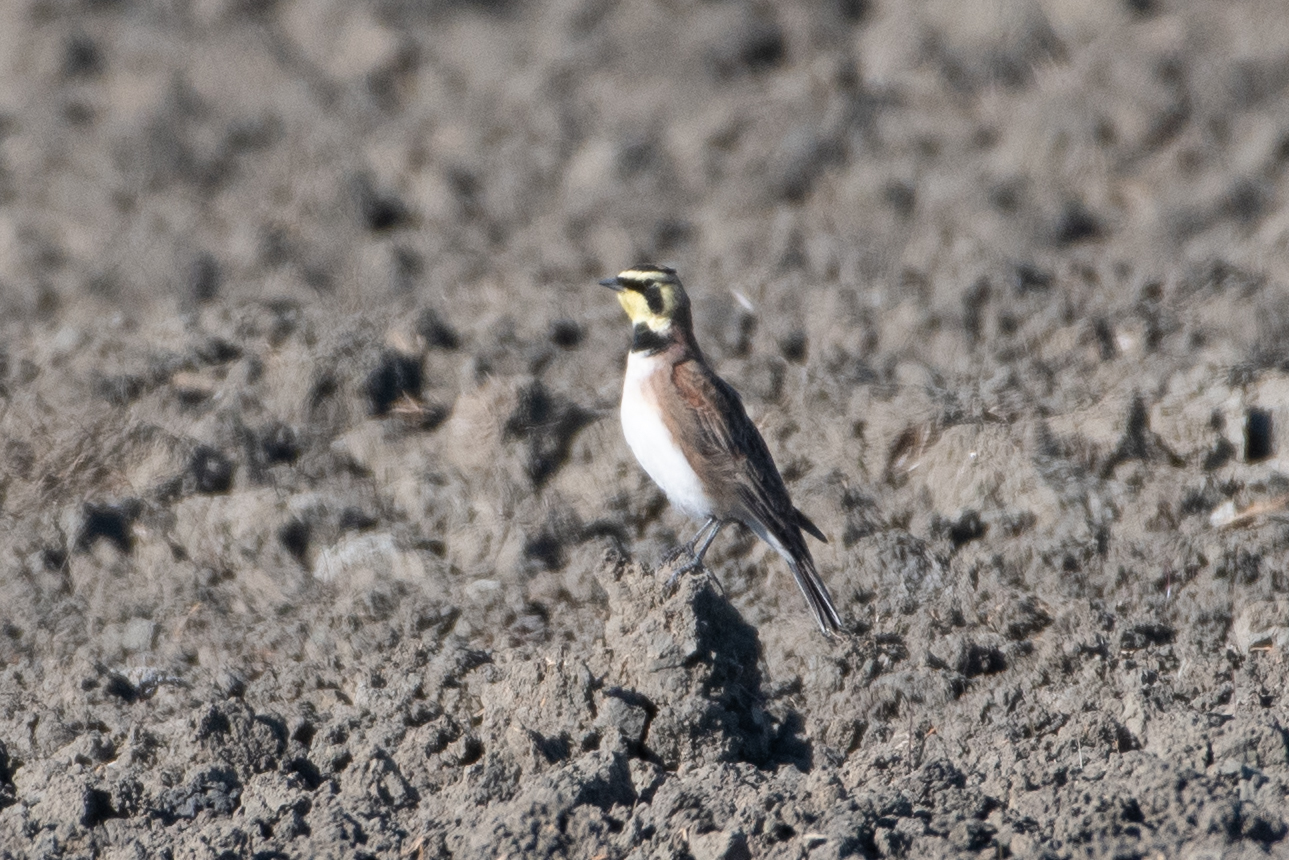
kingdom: Animalia
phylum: Chordata
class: Aves
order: Passeriformes
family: Alaudidae
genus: Eremophila
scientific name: Eremophila alpestris
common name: Horned lark
